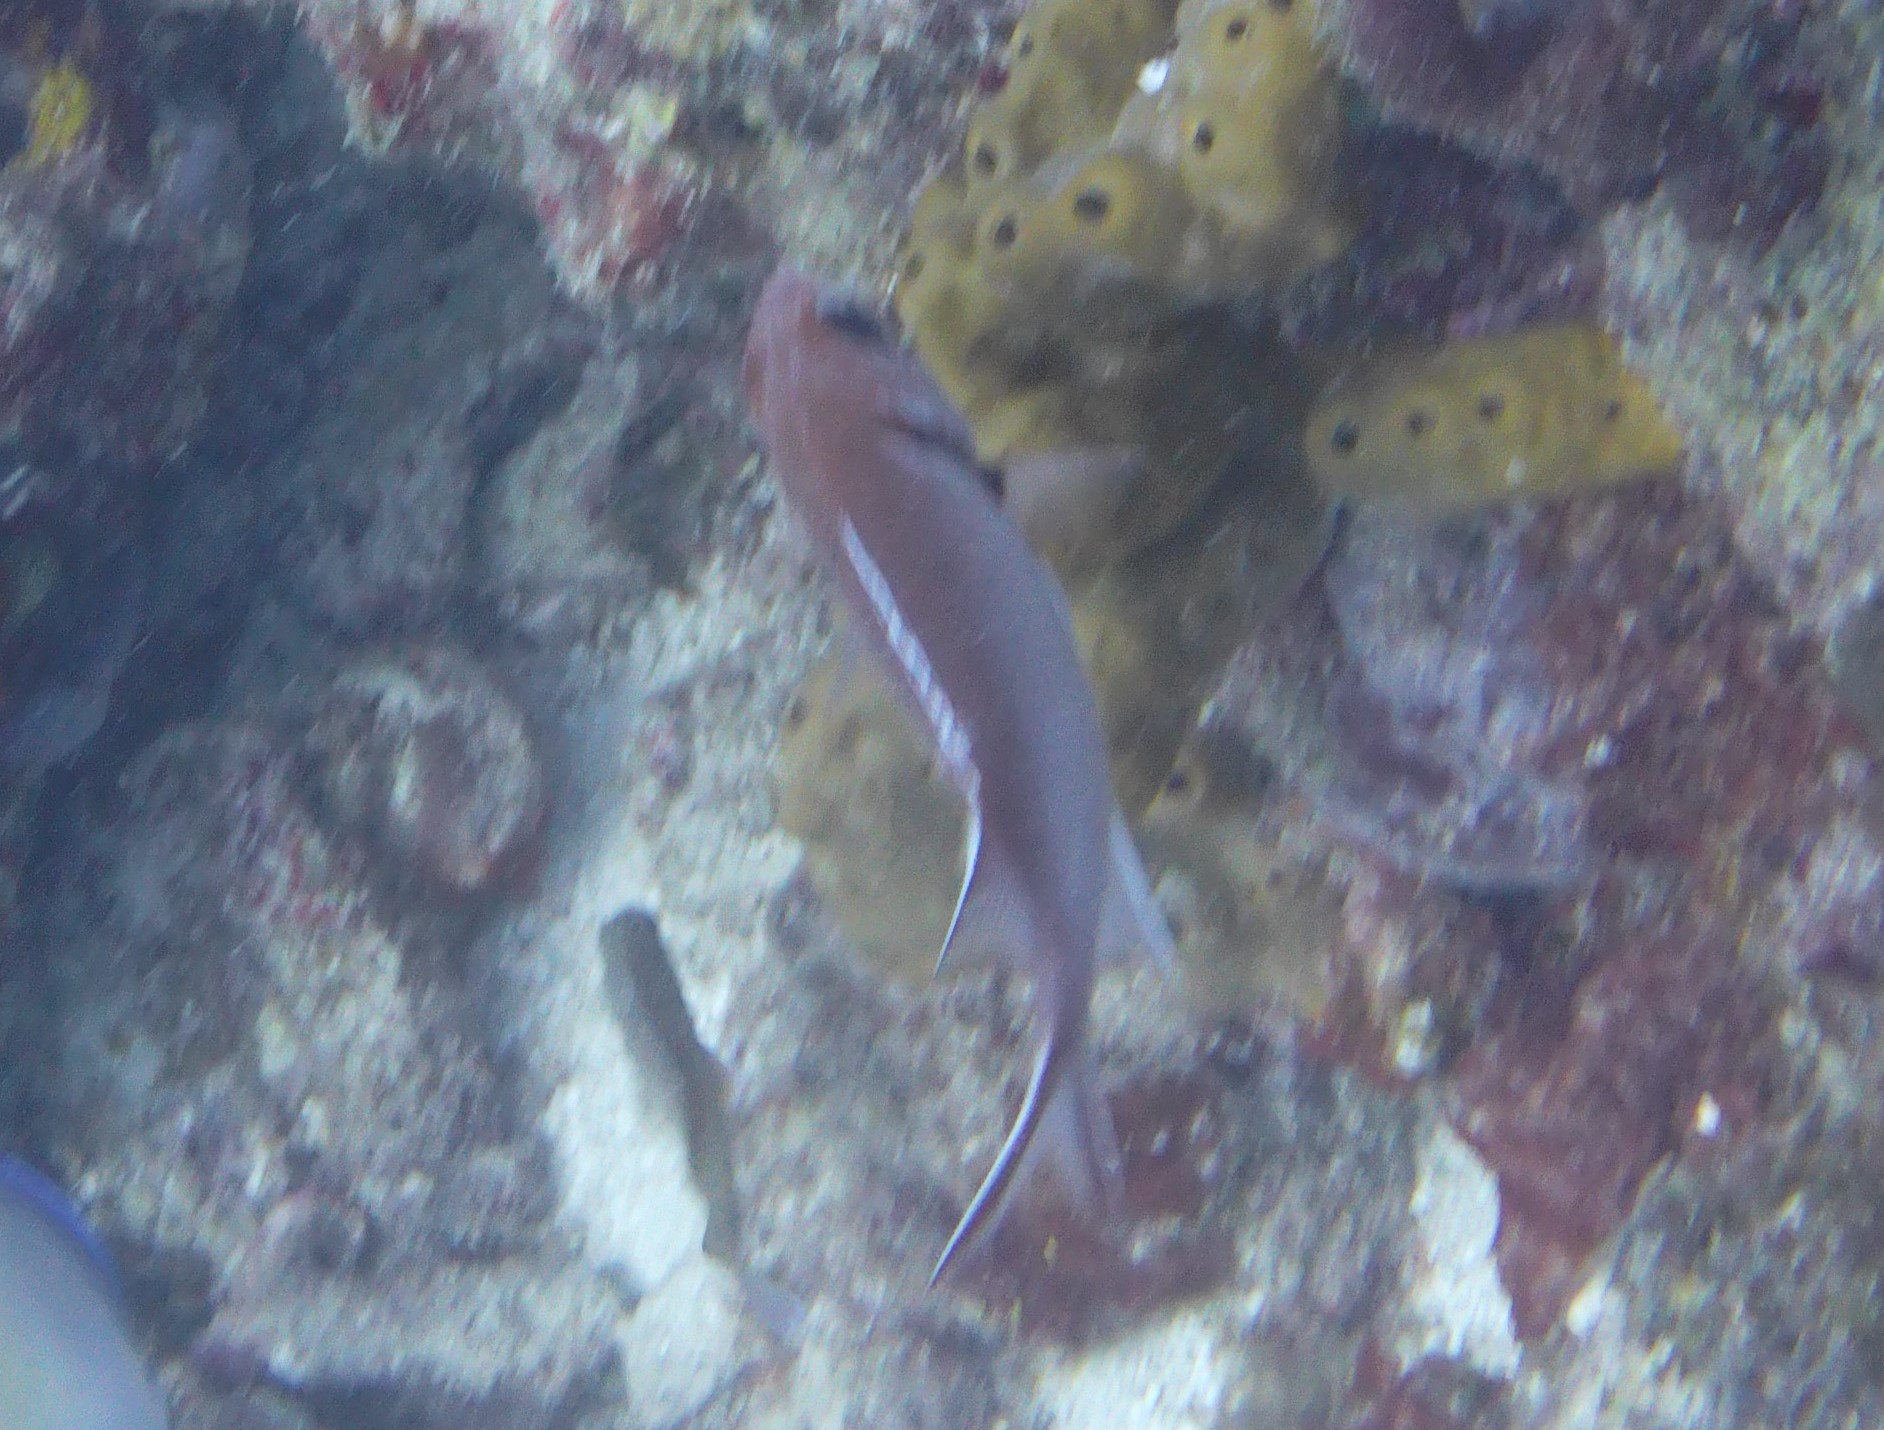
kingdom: Animalia
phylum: Chordata
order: Beryciformes
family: Holocentridae
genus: Myripristis
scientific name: Myripristis jacobus
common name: Blackbar soldierfish
